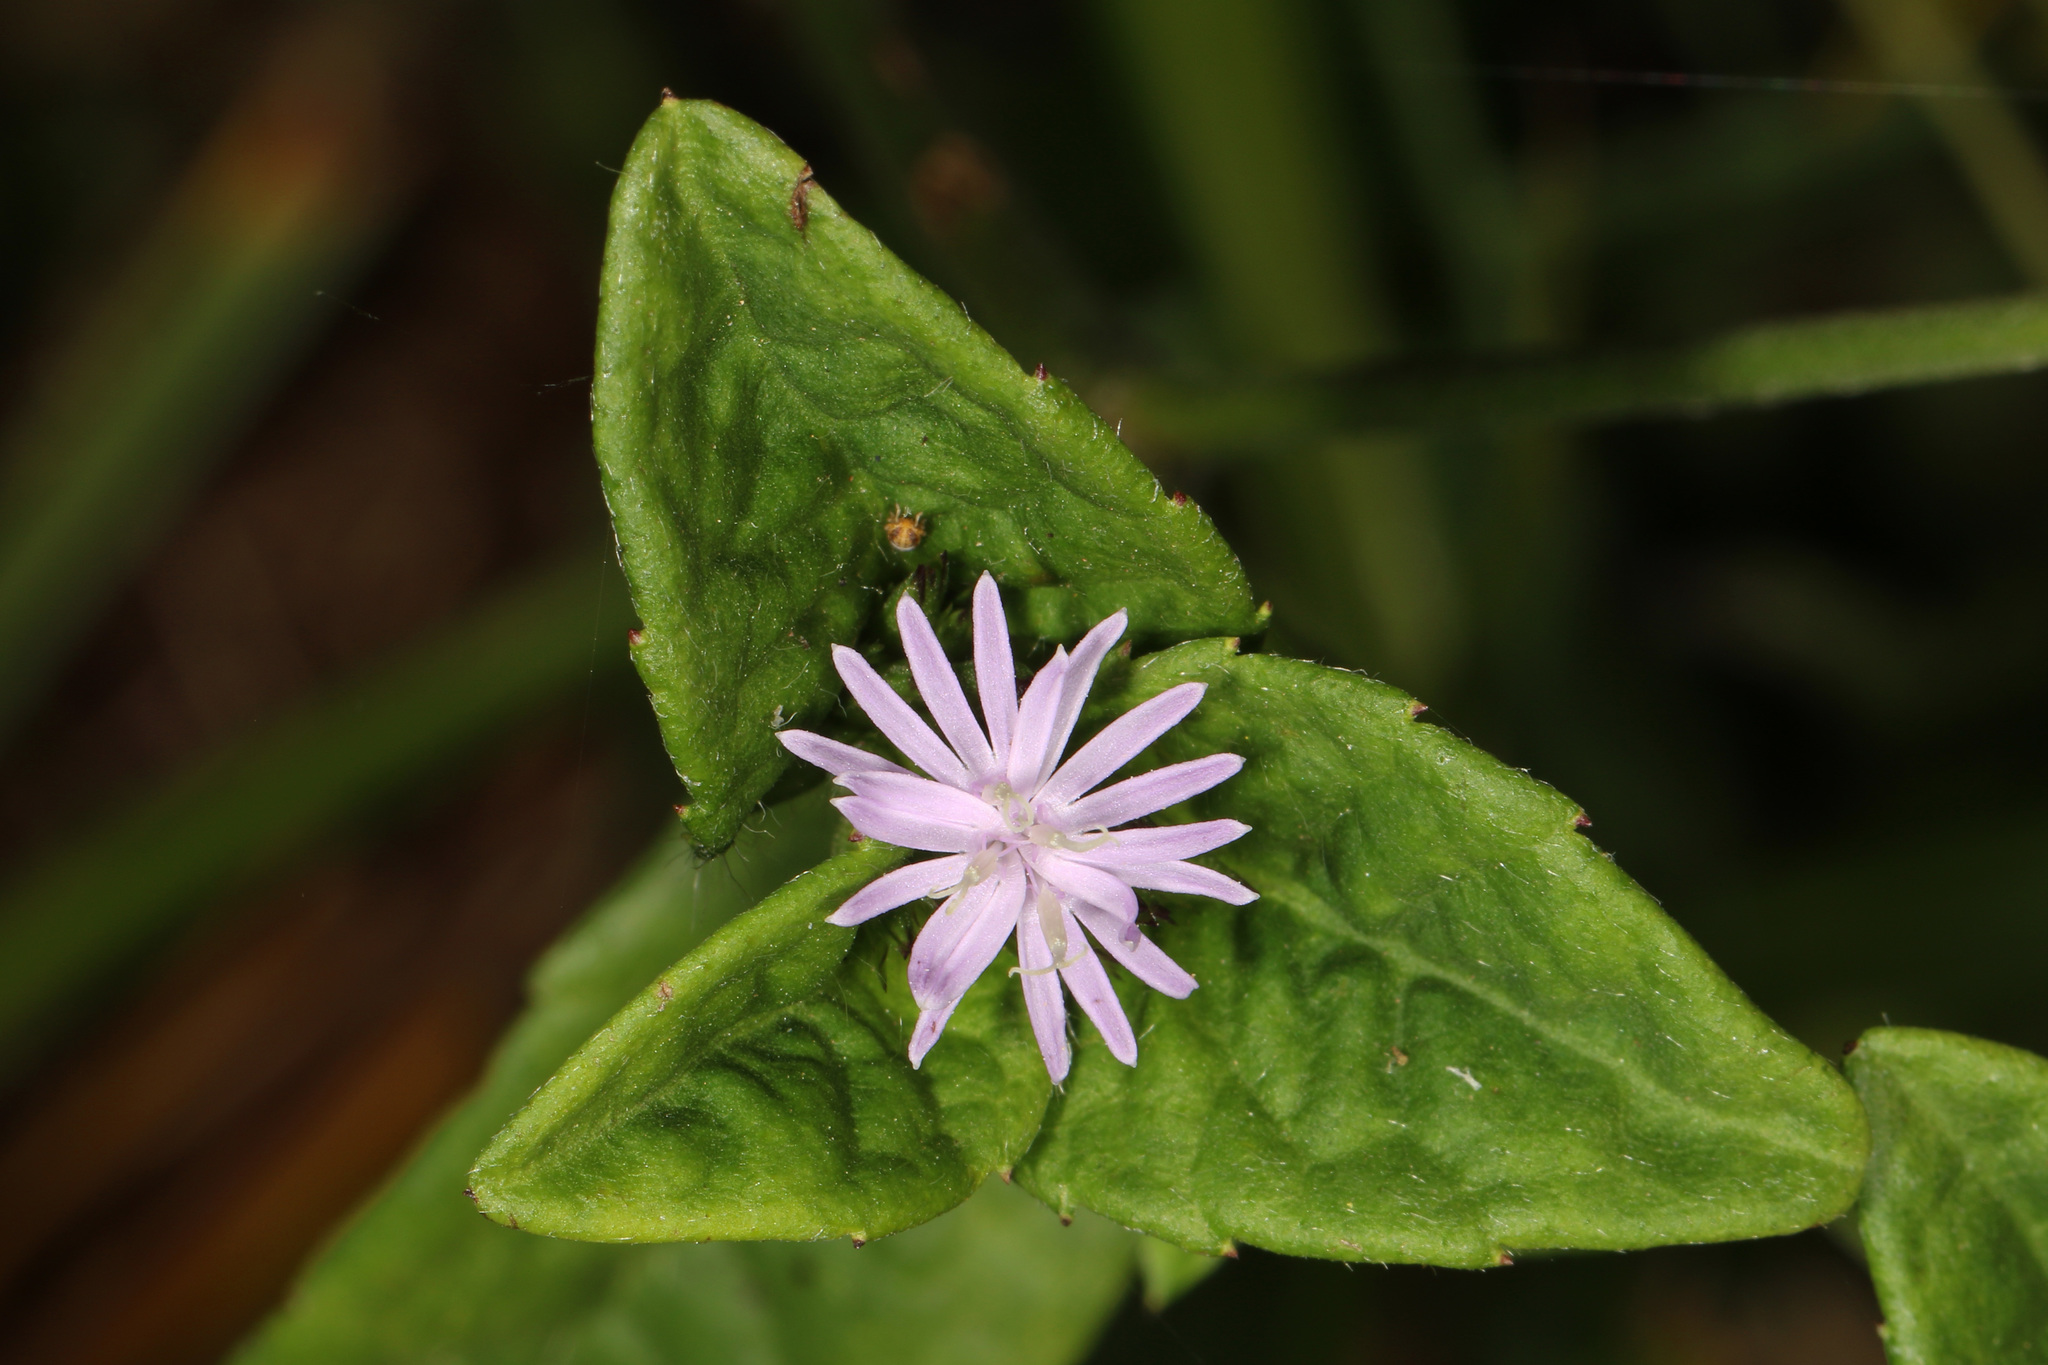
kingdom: Plantae
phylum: Tracheophyta
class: Magnoliopsida
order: Asterales
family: Asteraceae
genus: Elephantopus
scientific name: Elephantopus carolinianus
